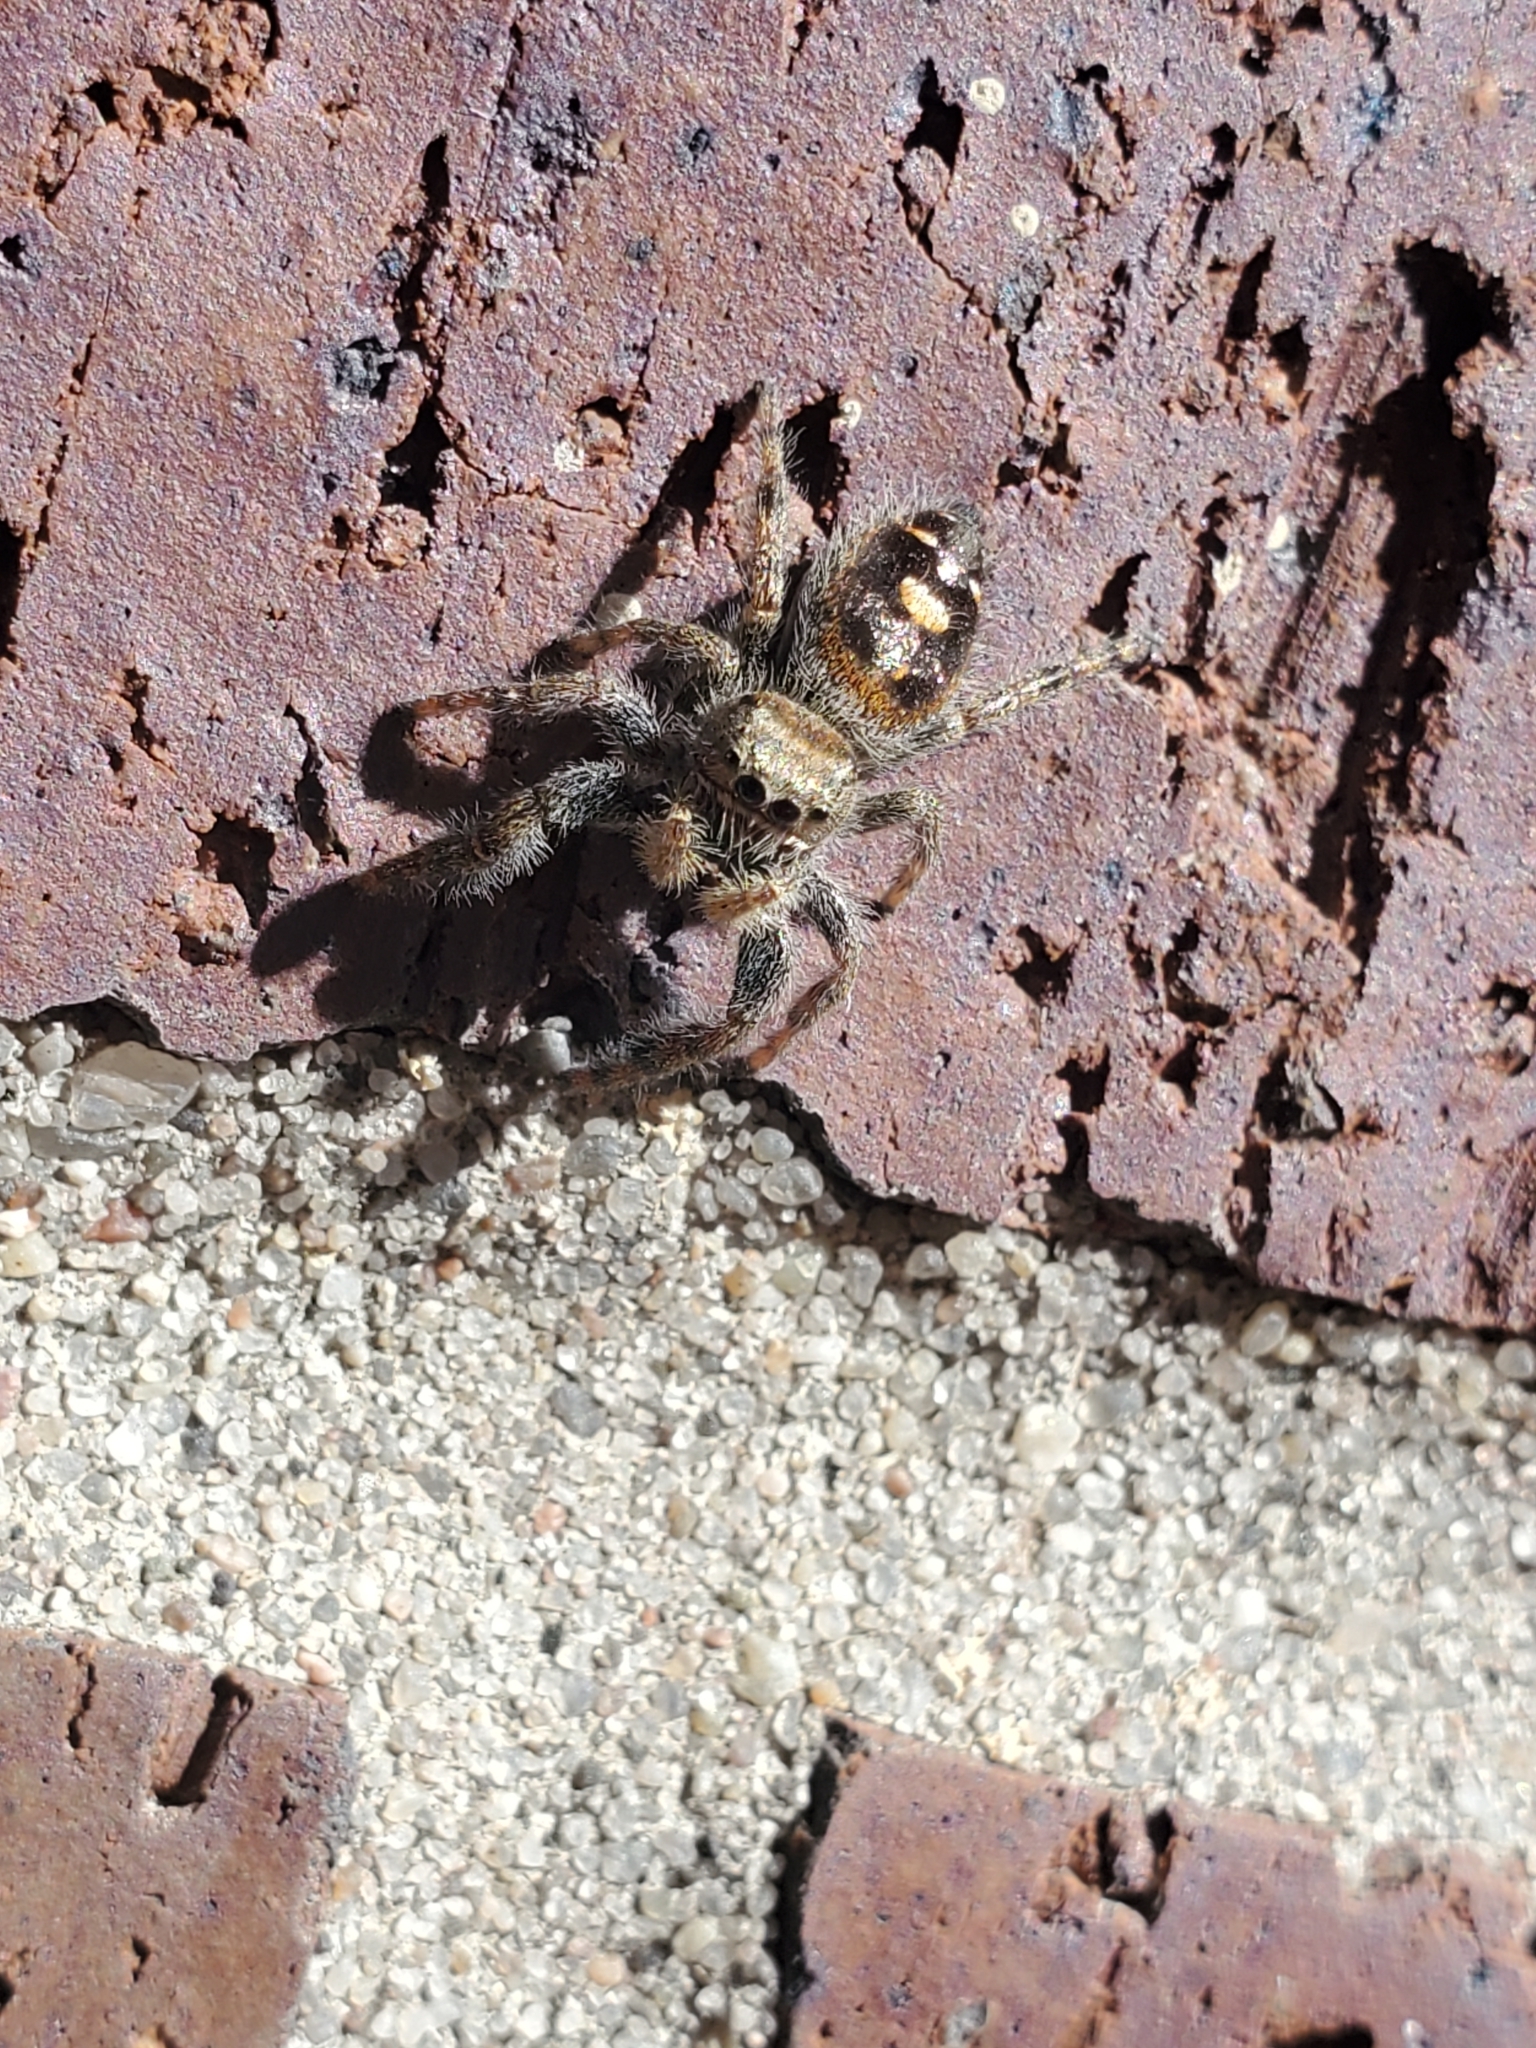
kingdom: Animalia
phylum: Arthropoda
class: Arachnida
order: Araneae
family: Salticidae
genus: Phidippus
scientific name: Phidippus audax
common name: Bold jumper
